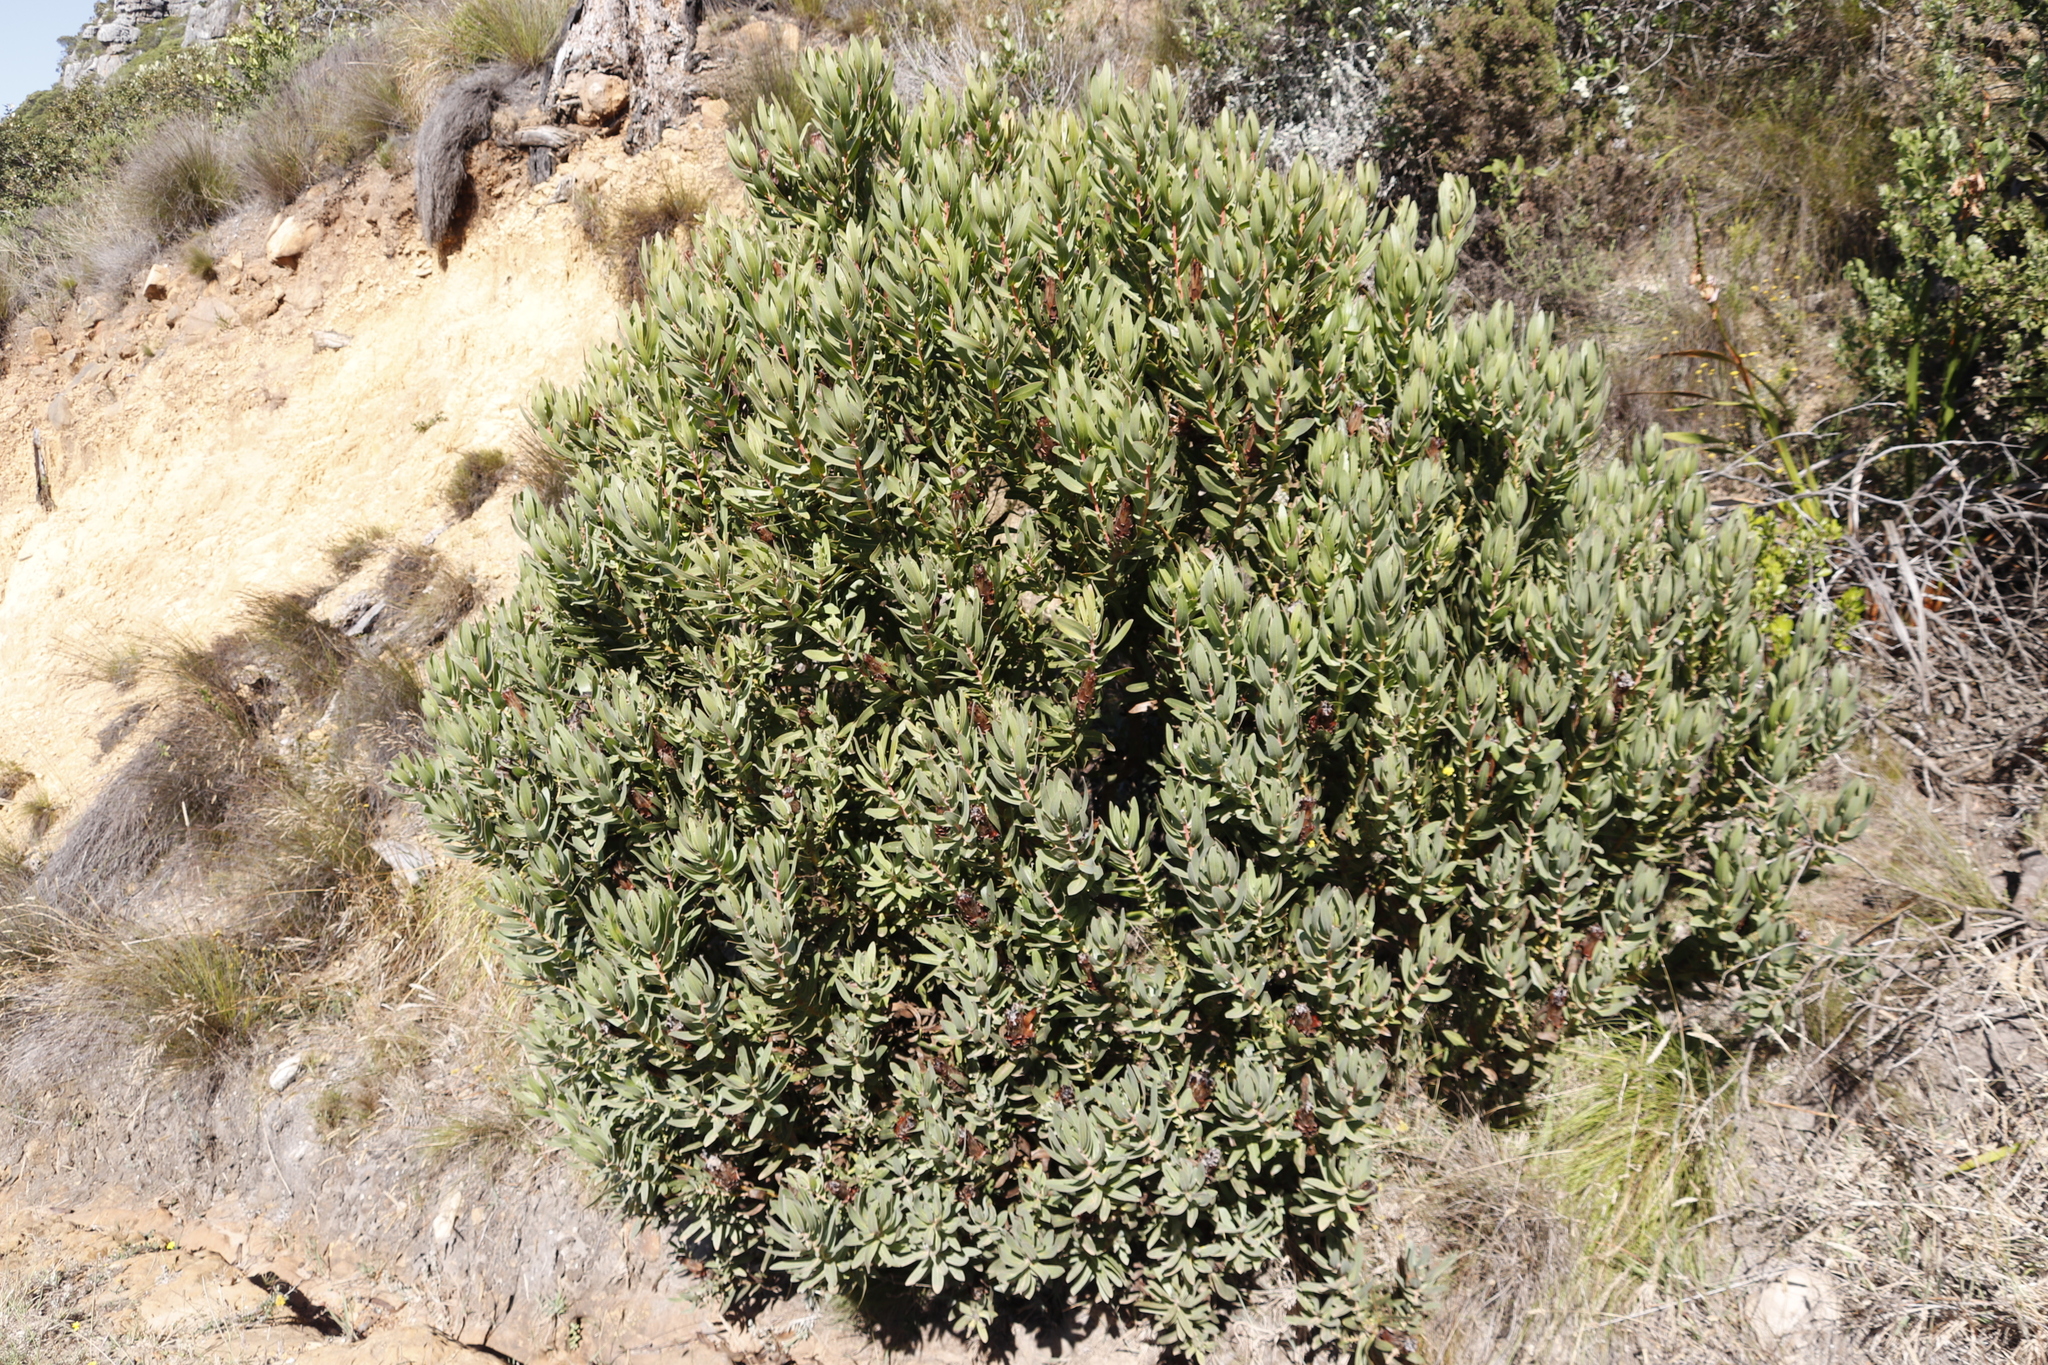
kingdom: Plantae
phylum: Tracheophyta
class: Magnoliopsida
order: Proteales
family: Proteaceae
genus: Protea
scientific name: Protea lepidocarpodendron
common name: Black-bearded protea
